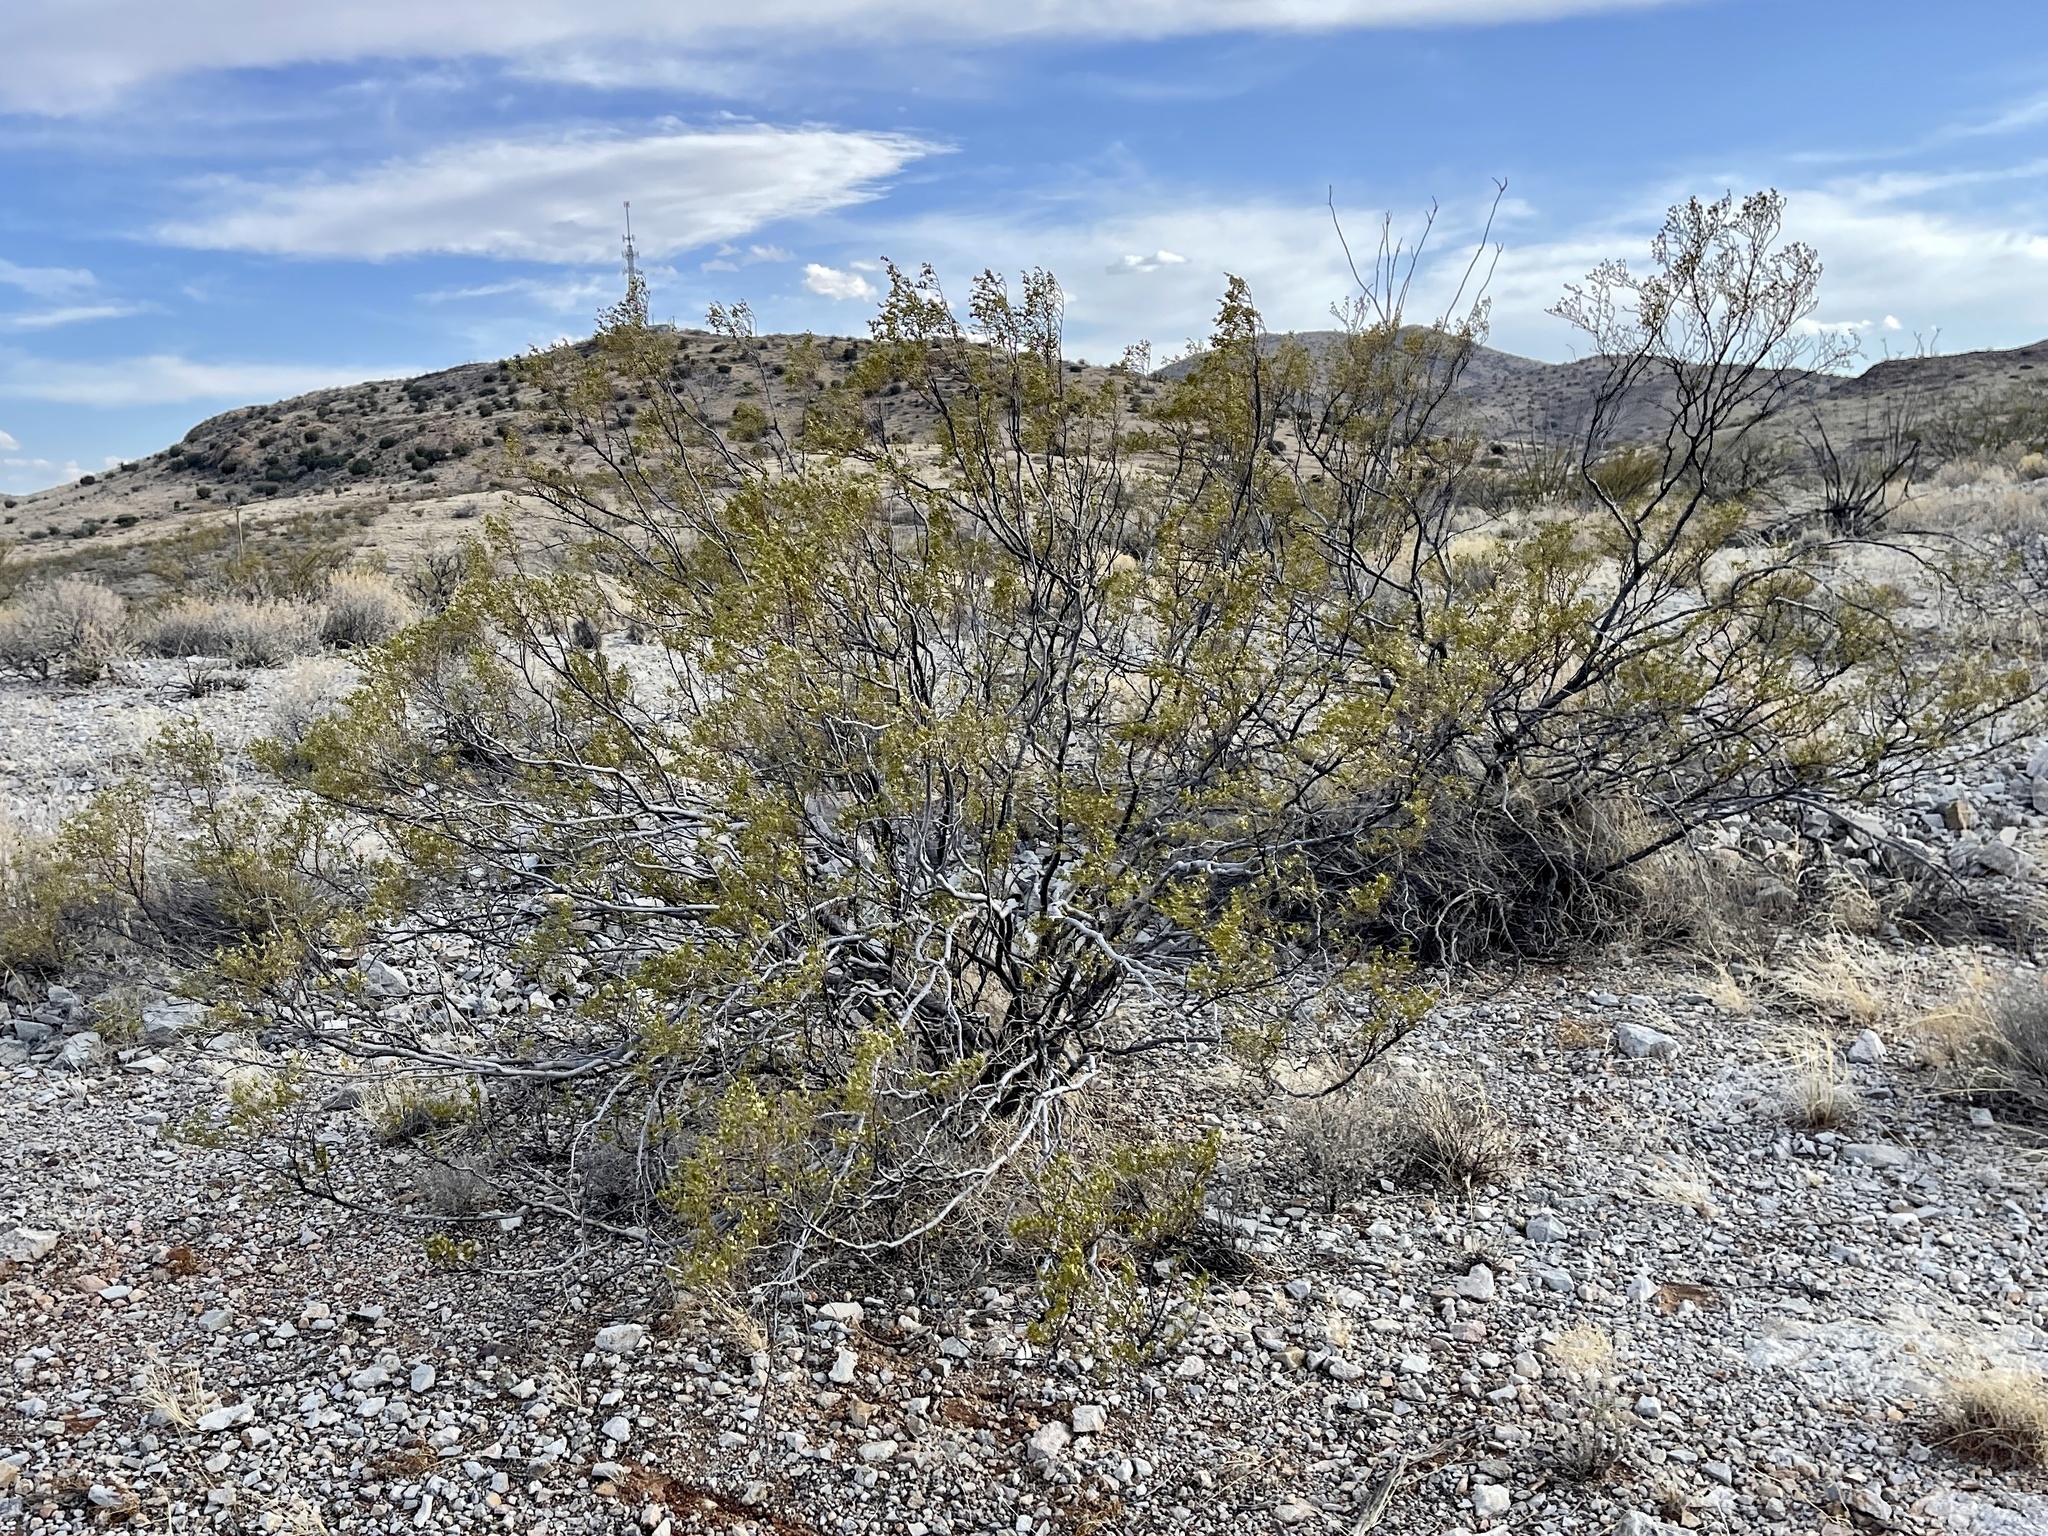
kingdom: Plantae
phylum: Tracheophyta
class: Magnoliopsida
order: Zygophyllales
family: Zygophyllaceae
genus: Larrea
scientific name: Larrea tridentata
